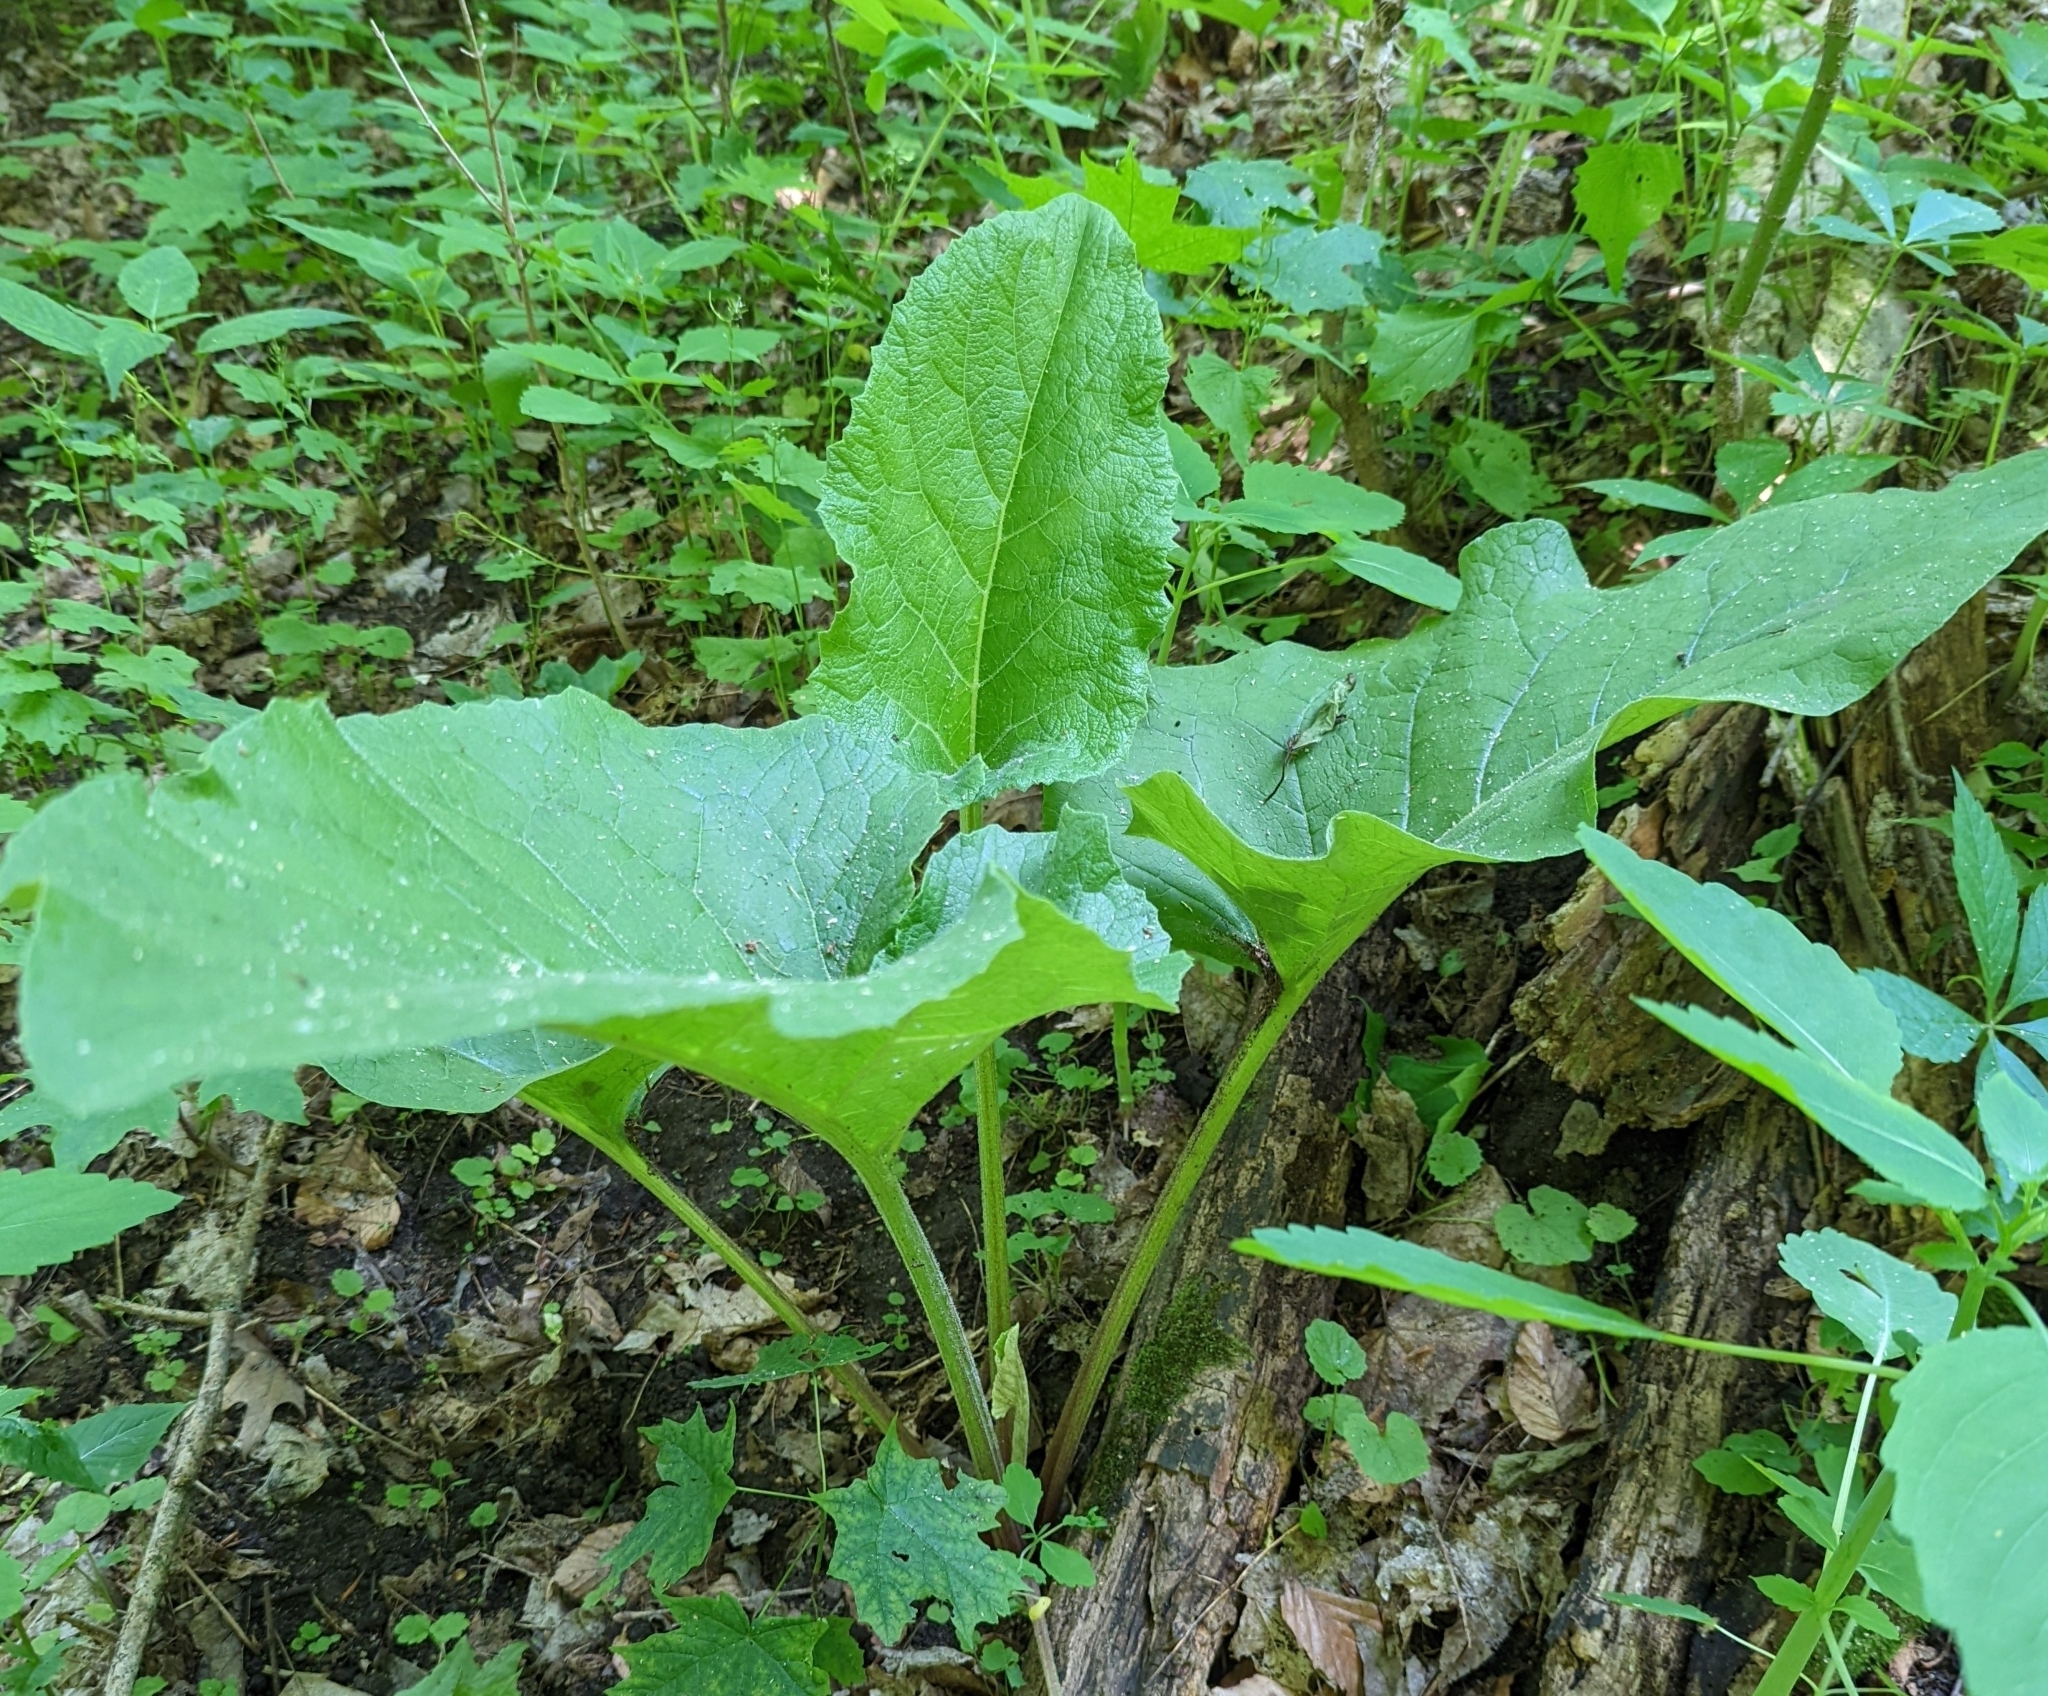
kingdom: Plantae
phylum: Tracheophyta
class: Magnoliopsida
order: Asterales
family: Asteraceae
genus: Arctium
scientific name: Arctium minus
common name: Lesser burdock
